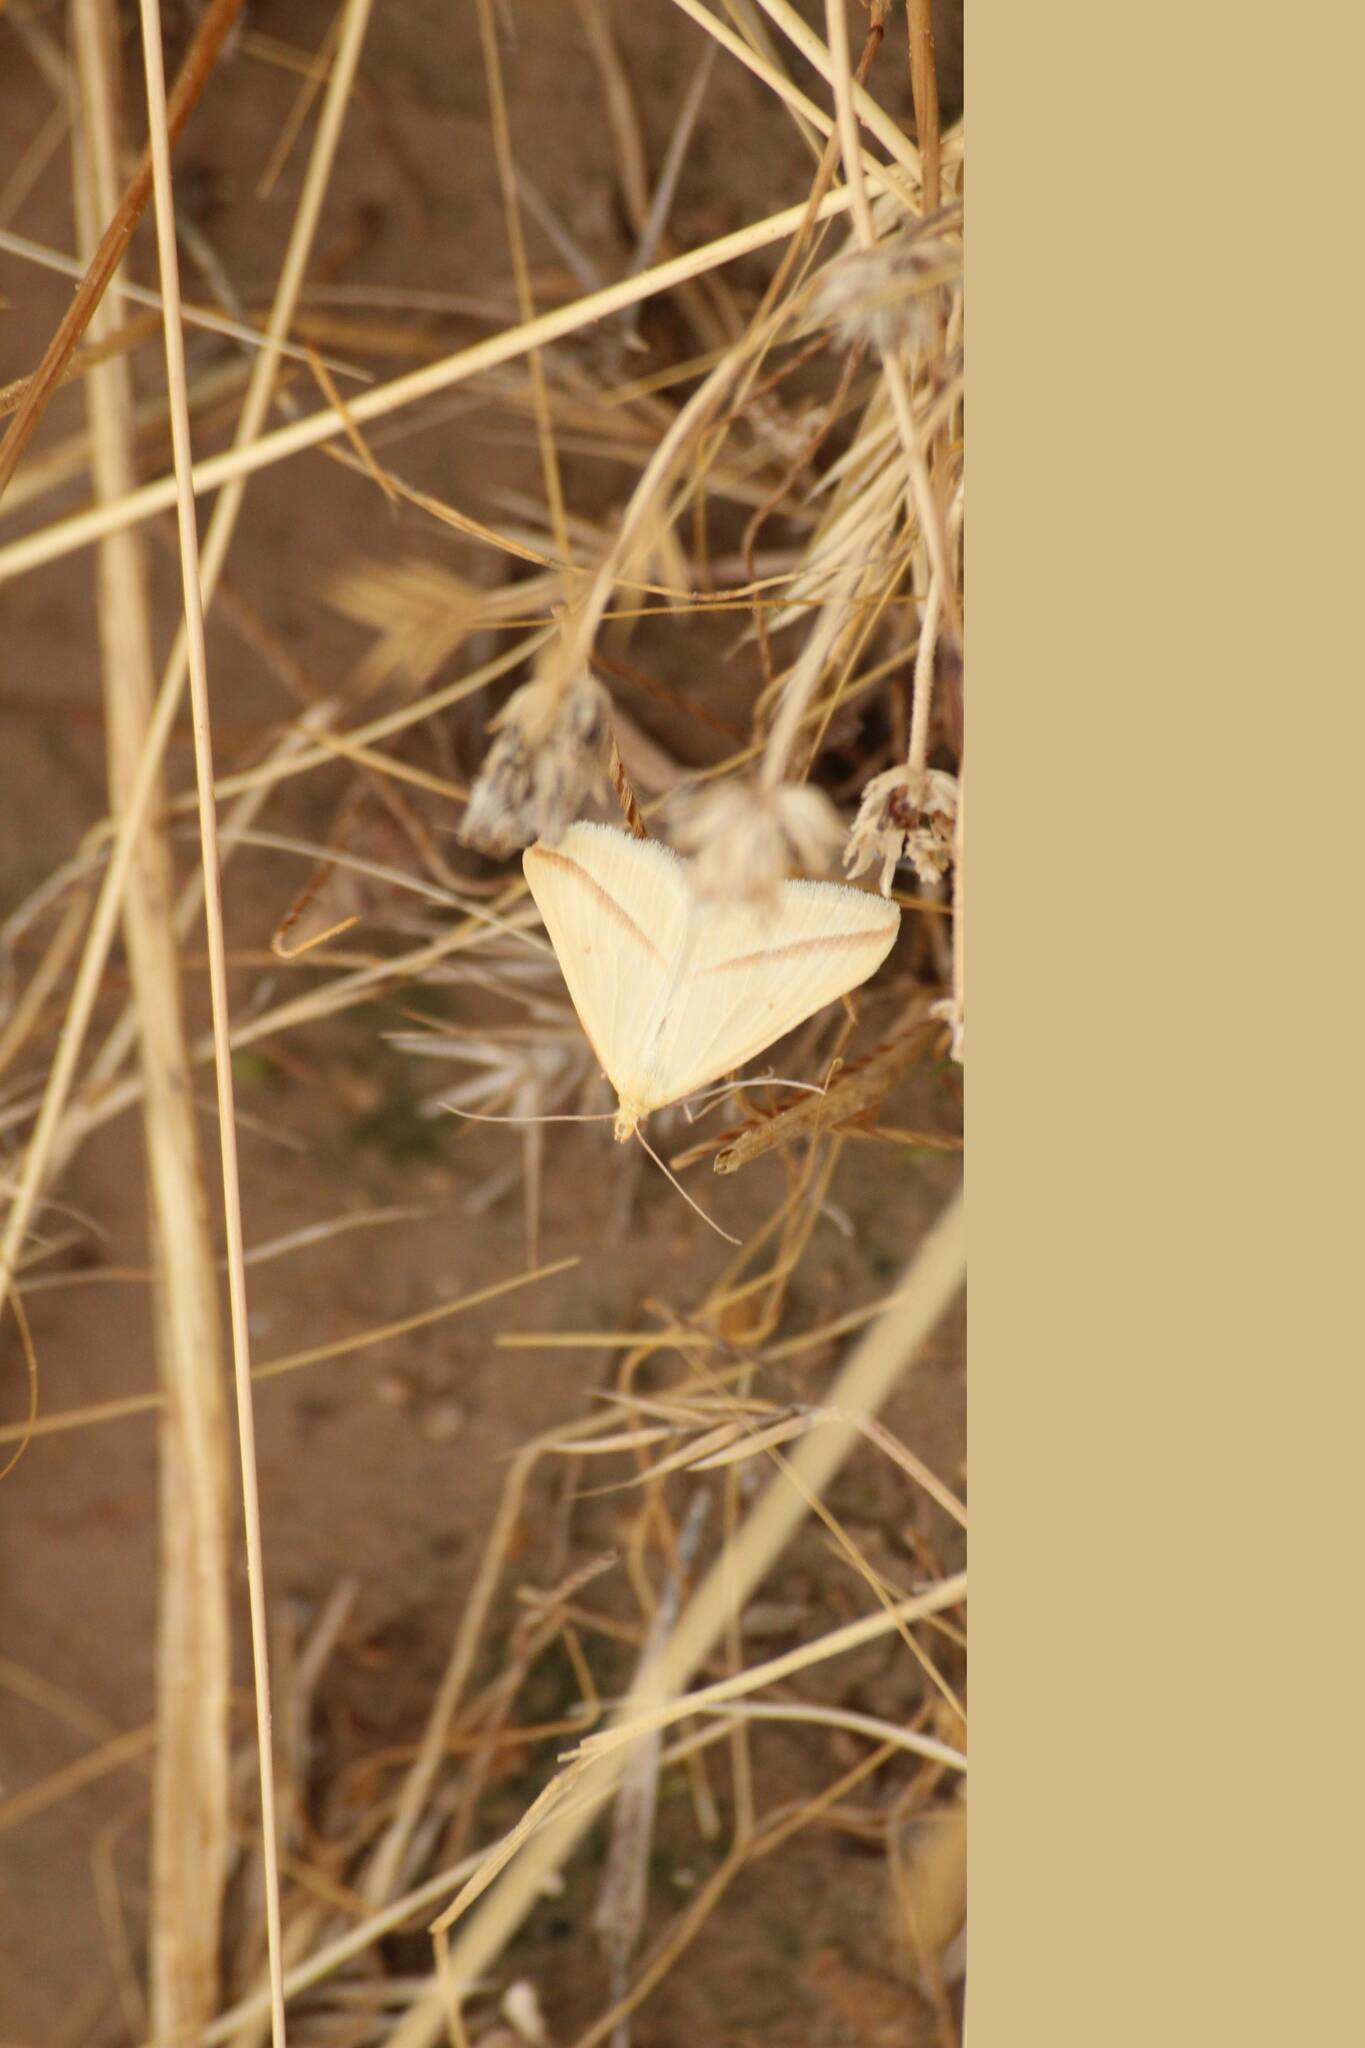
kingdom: Animalia
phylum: Arthropoda
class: Insecta
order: Lepidoptera
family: Geometridae
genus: Rhodometra
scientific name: Rhodometra sacraria
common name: Vestal
